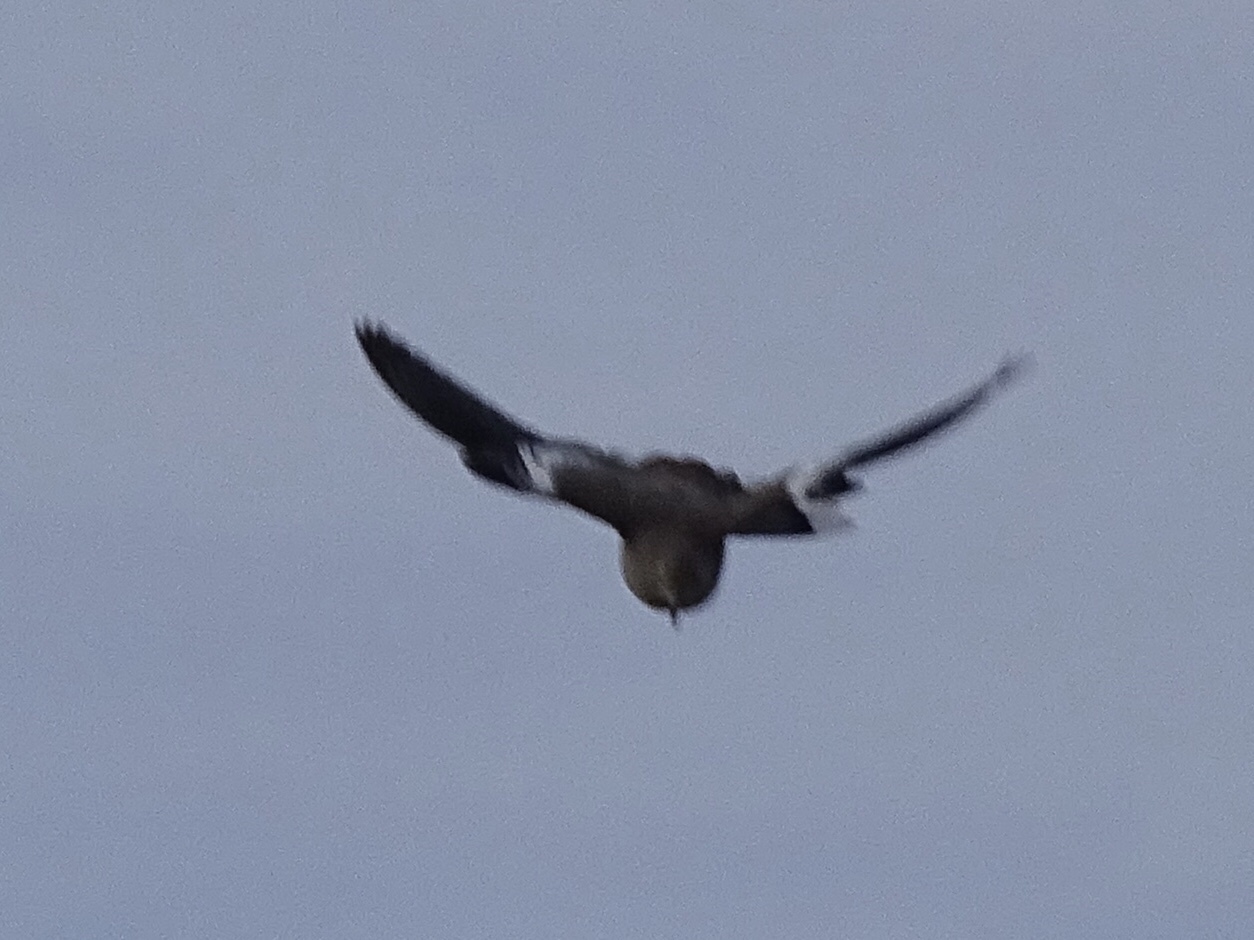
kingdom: Animalia
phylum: Chordata
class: Aves
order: Columbiformes
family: Columbidae
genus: Zenaida
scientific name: Zenaida asiatica
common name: White-winged dove
